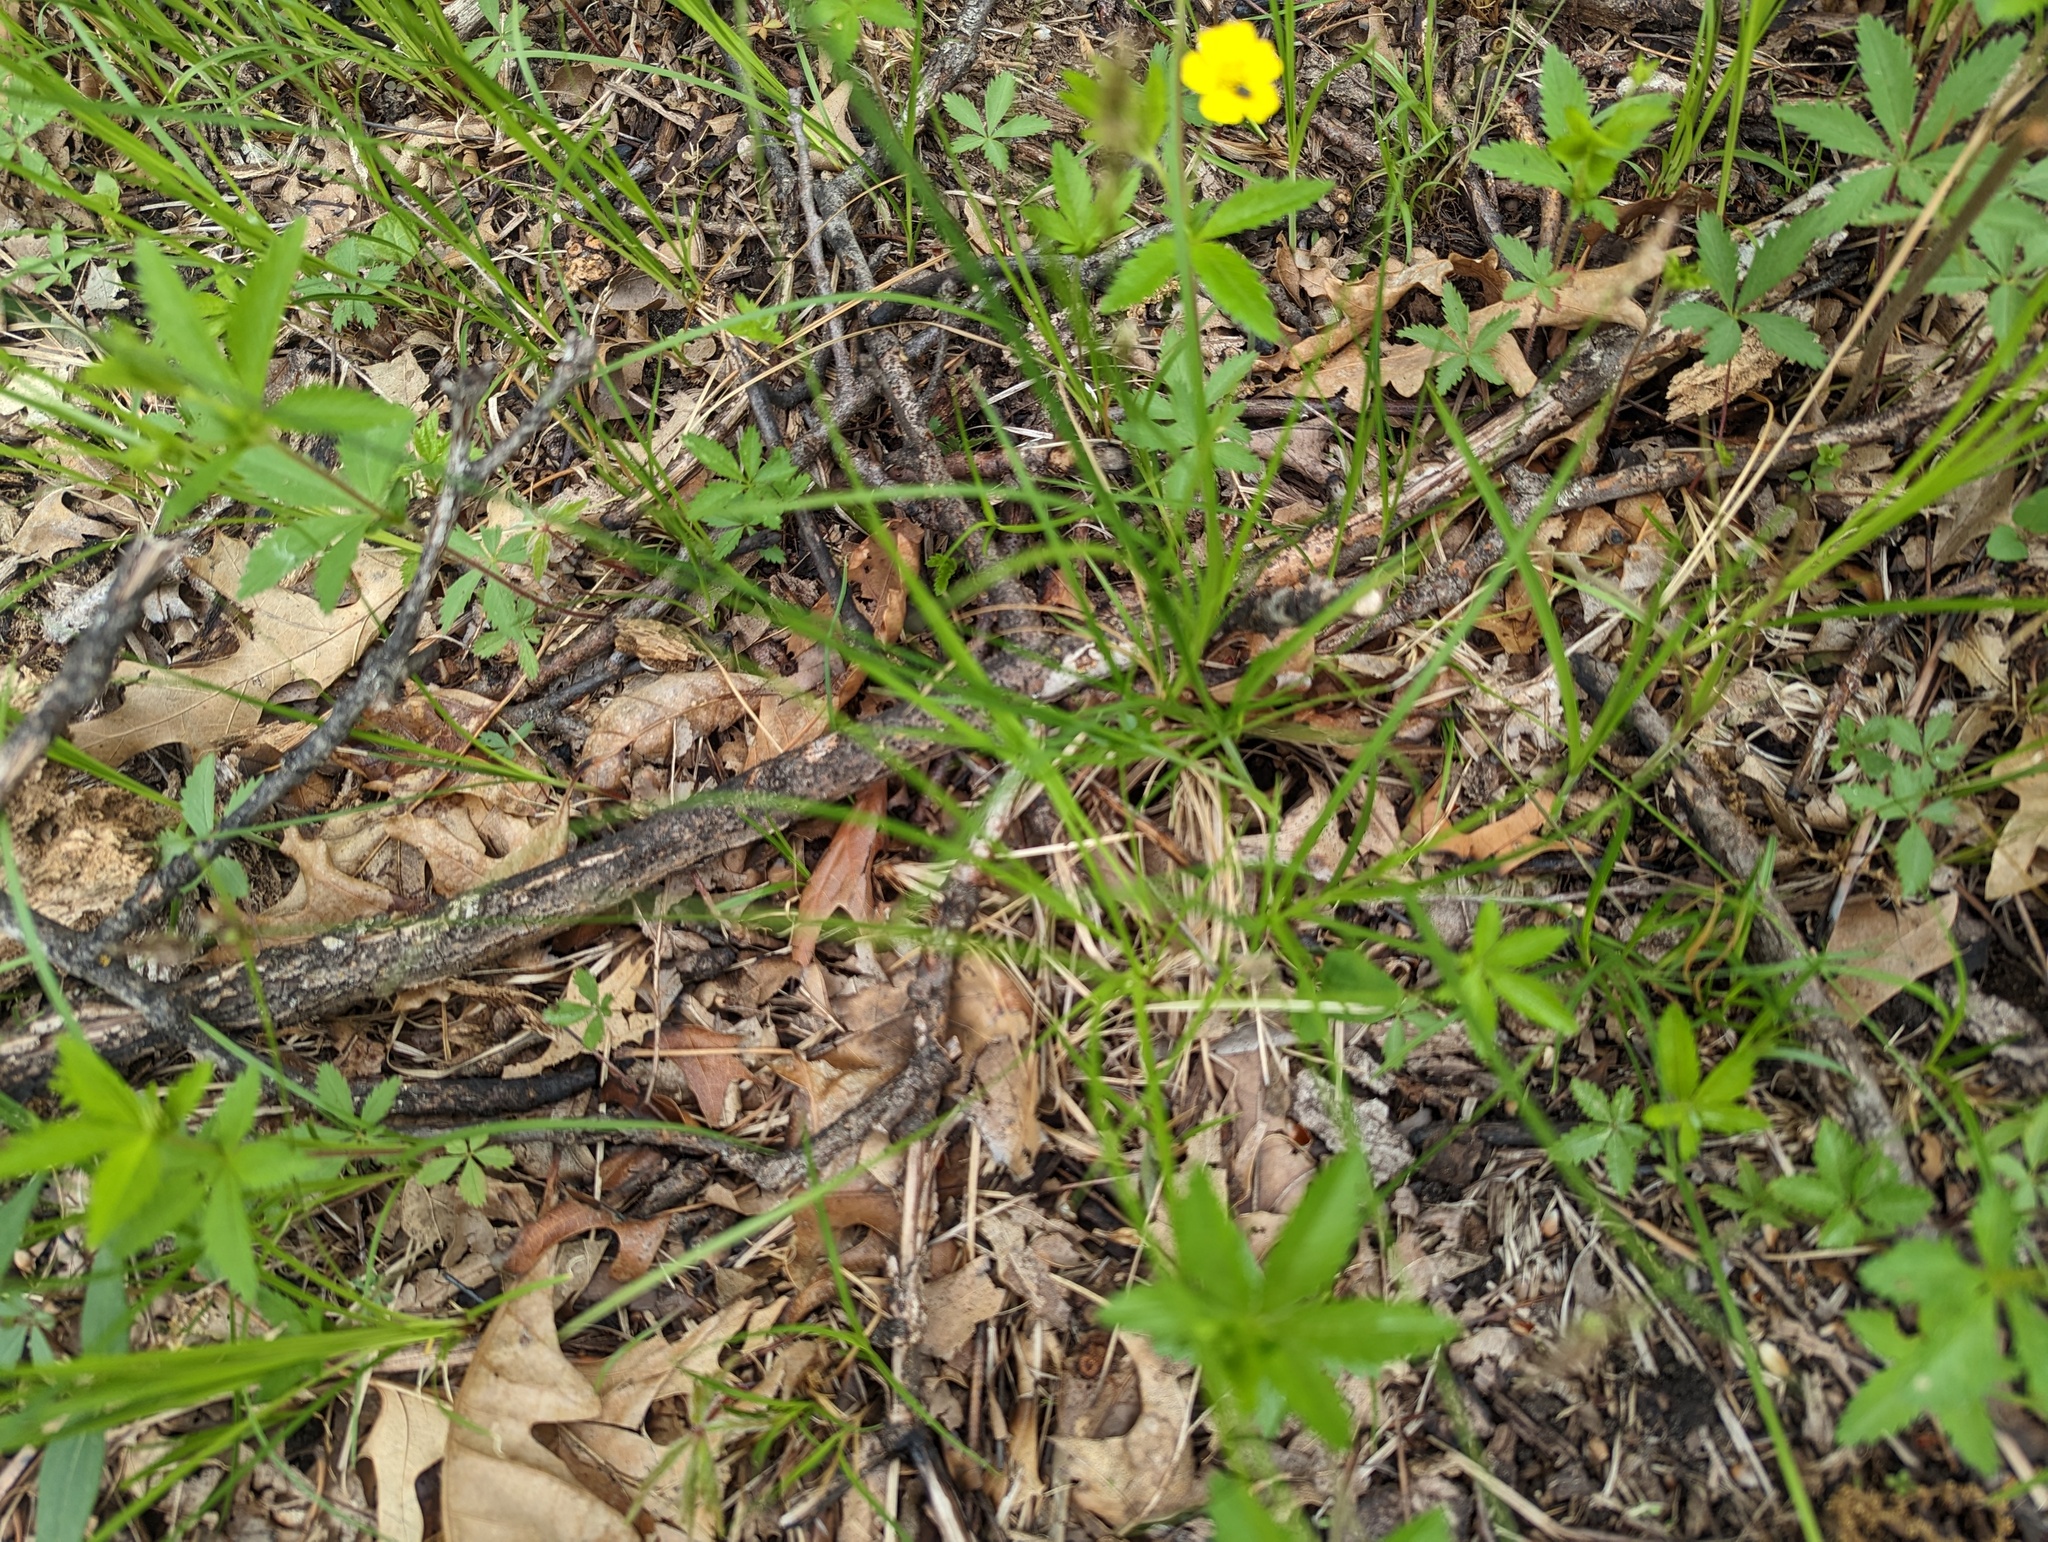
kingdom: Plantae
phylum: Tracheophyta
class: Liliopsida
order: Poales
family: Cyperaceae
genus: Carex
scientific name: Carex siccata
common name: Dry sedge
